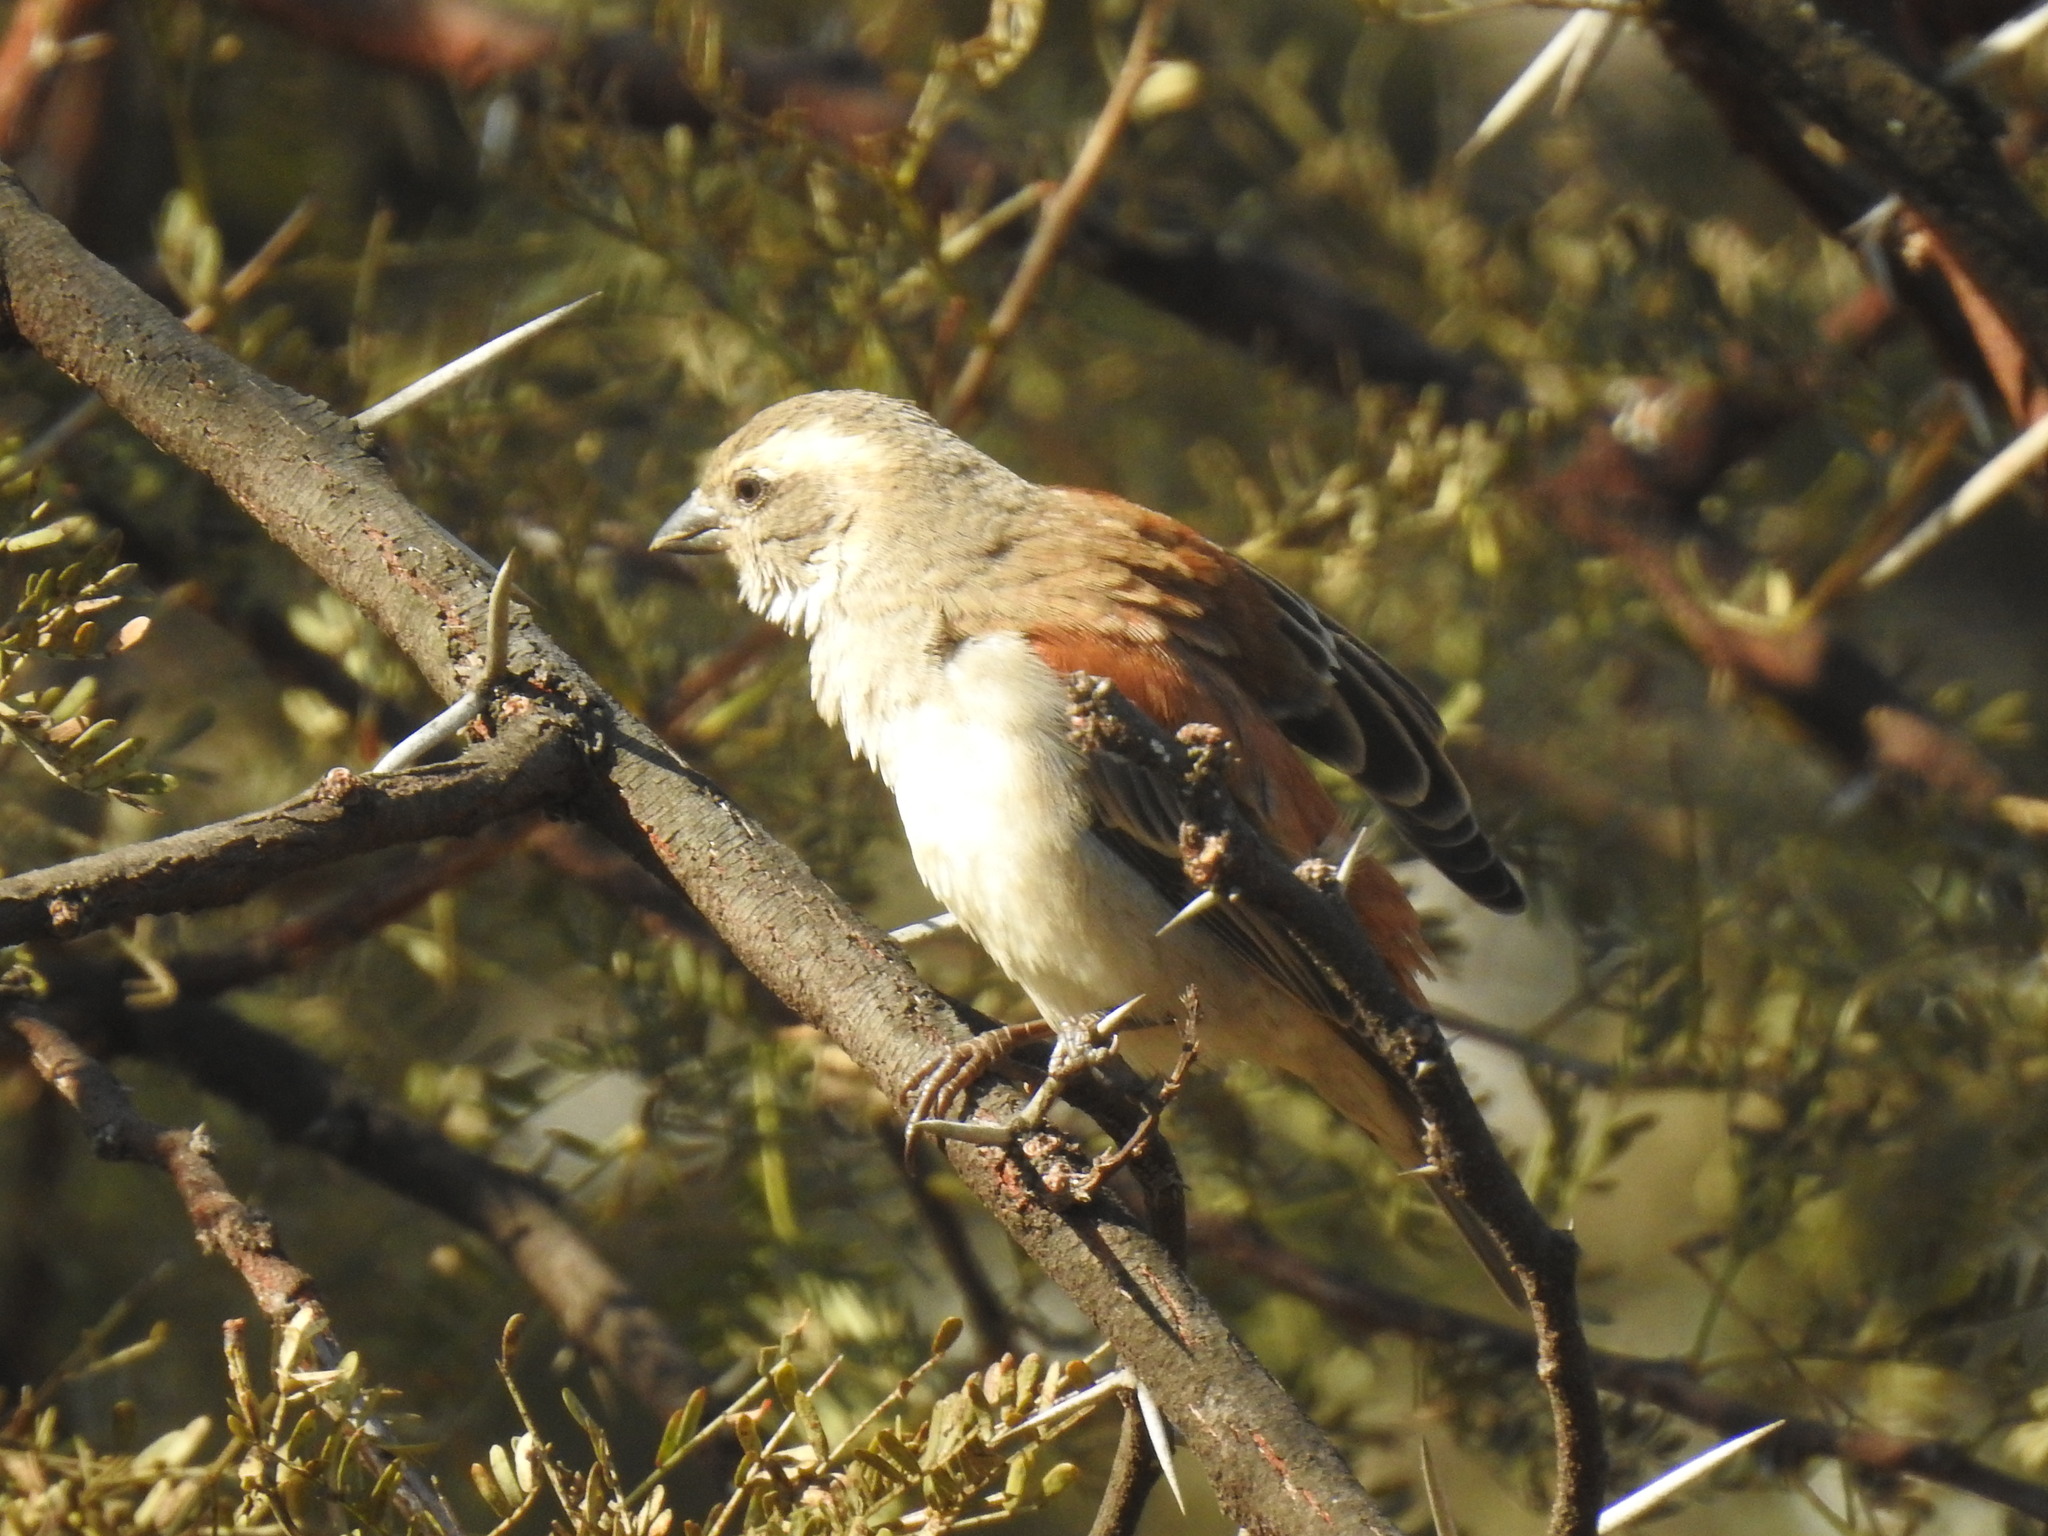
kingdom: Animalia
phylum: Chordata
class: Aves
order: Passeriformes
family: Passeridae
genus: Passer
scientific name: Passer melanurus
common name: Cape sparrow
